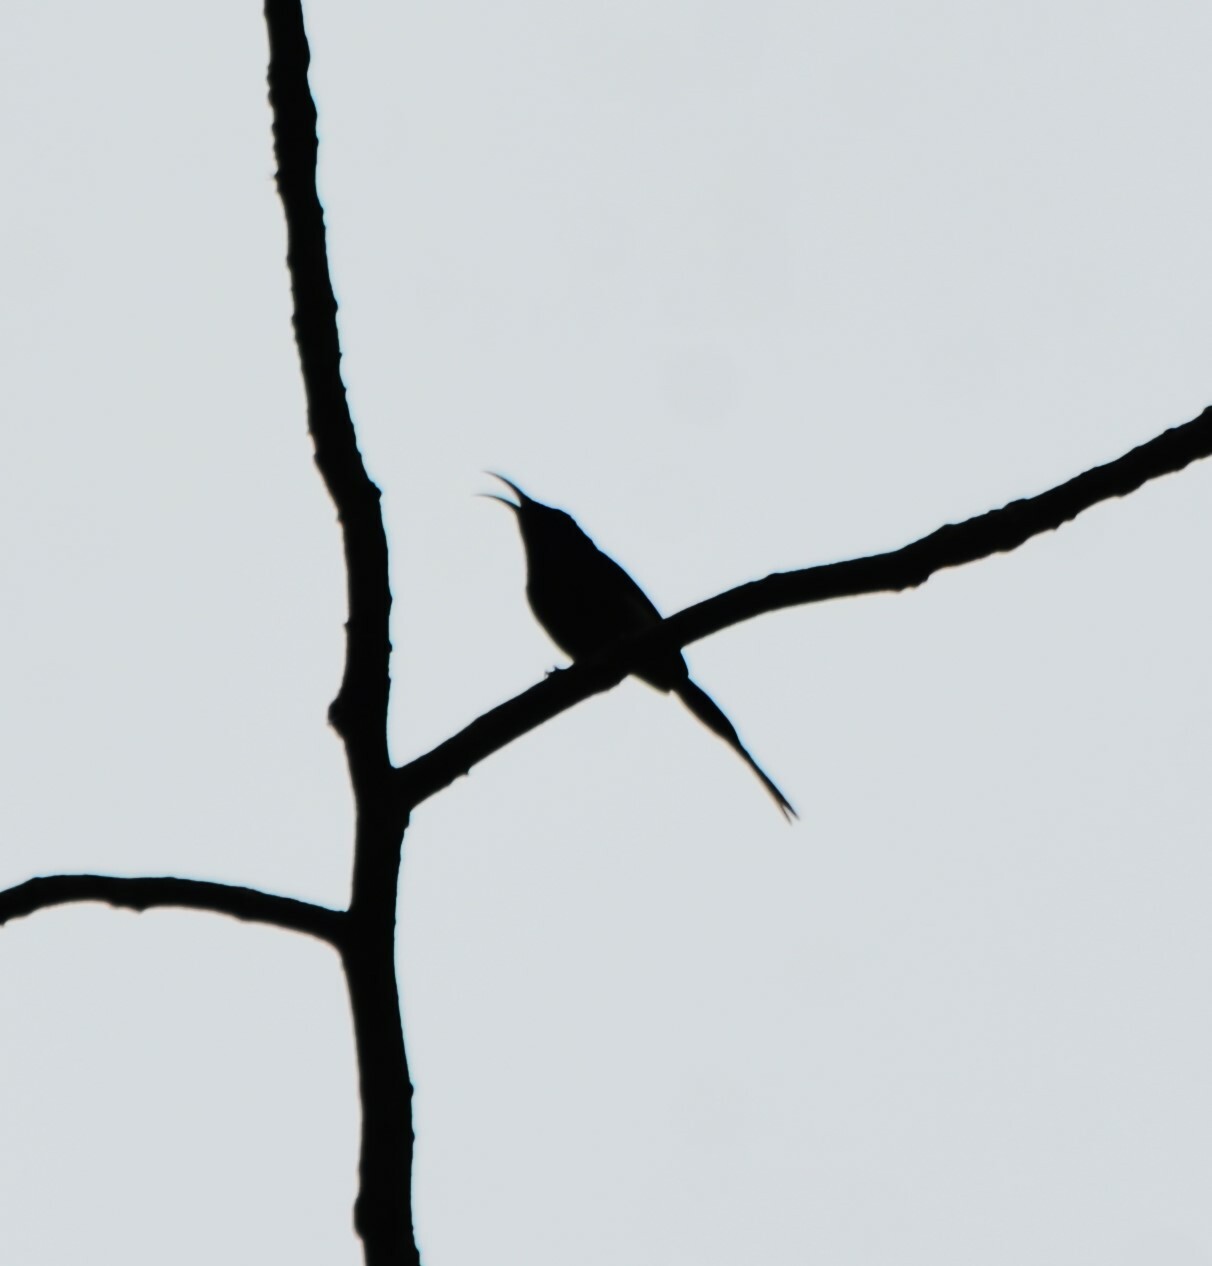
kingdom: Animalia
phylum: Chordata
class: Aves
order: Passeriformes
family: Nectariniidae
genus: Aethopyga
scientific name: Aethopyga saturata
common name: Black-throated sunbird
